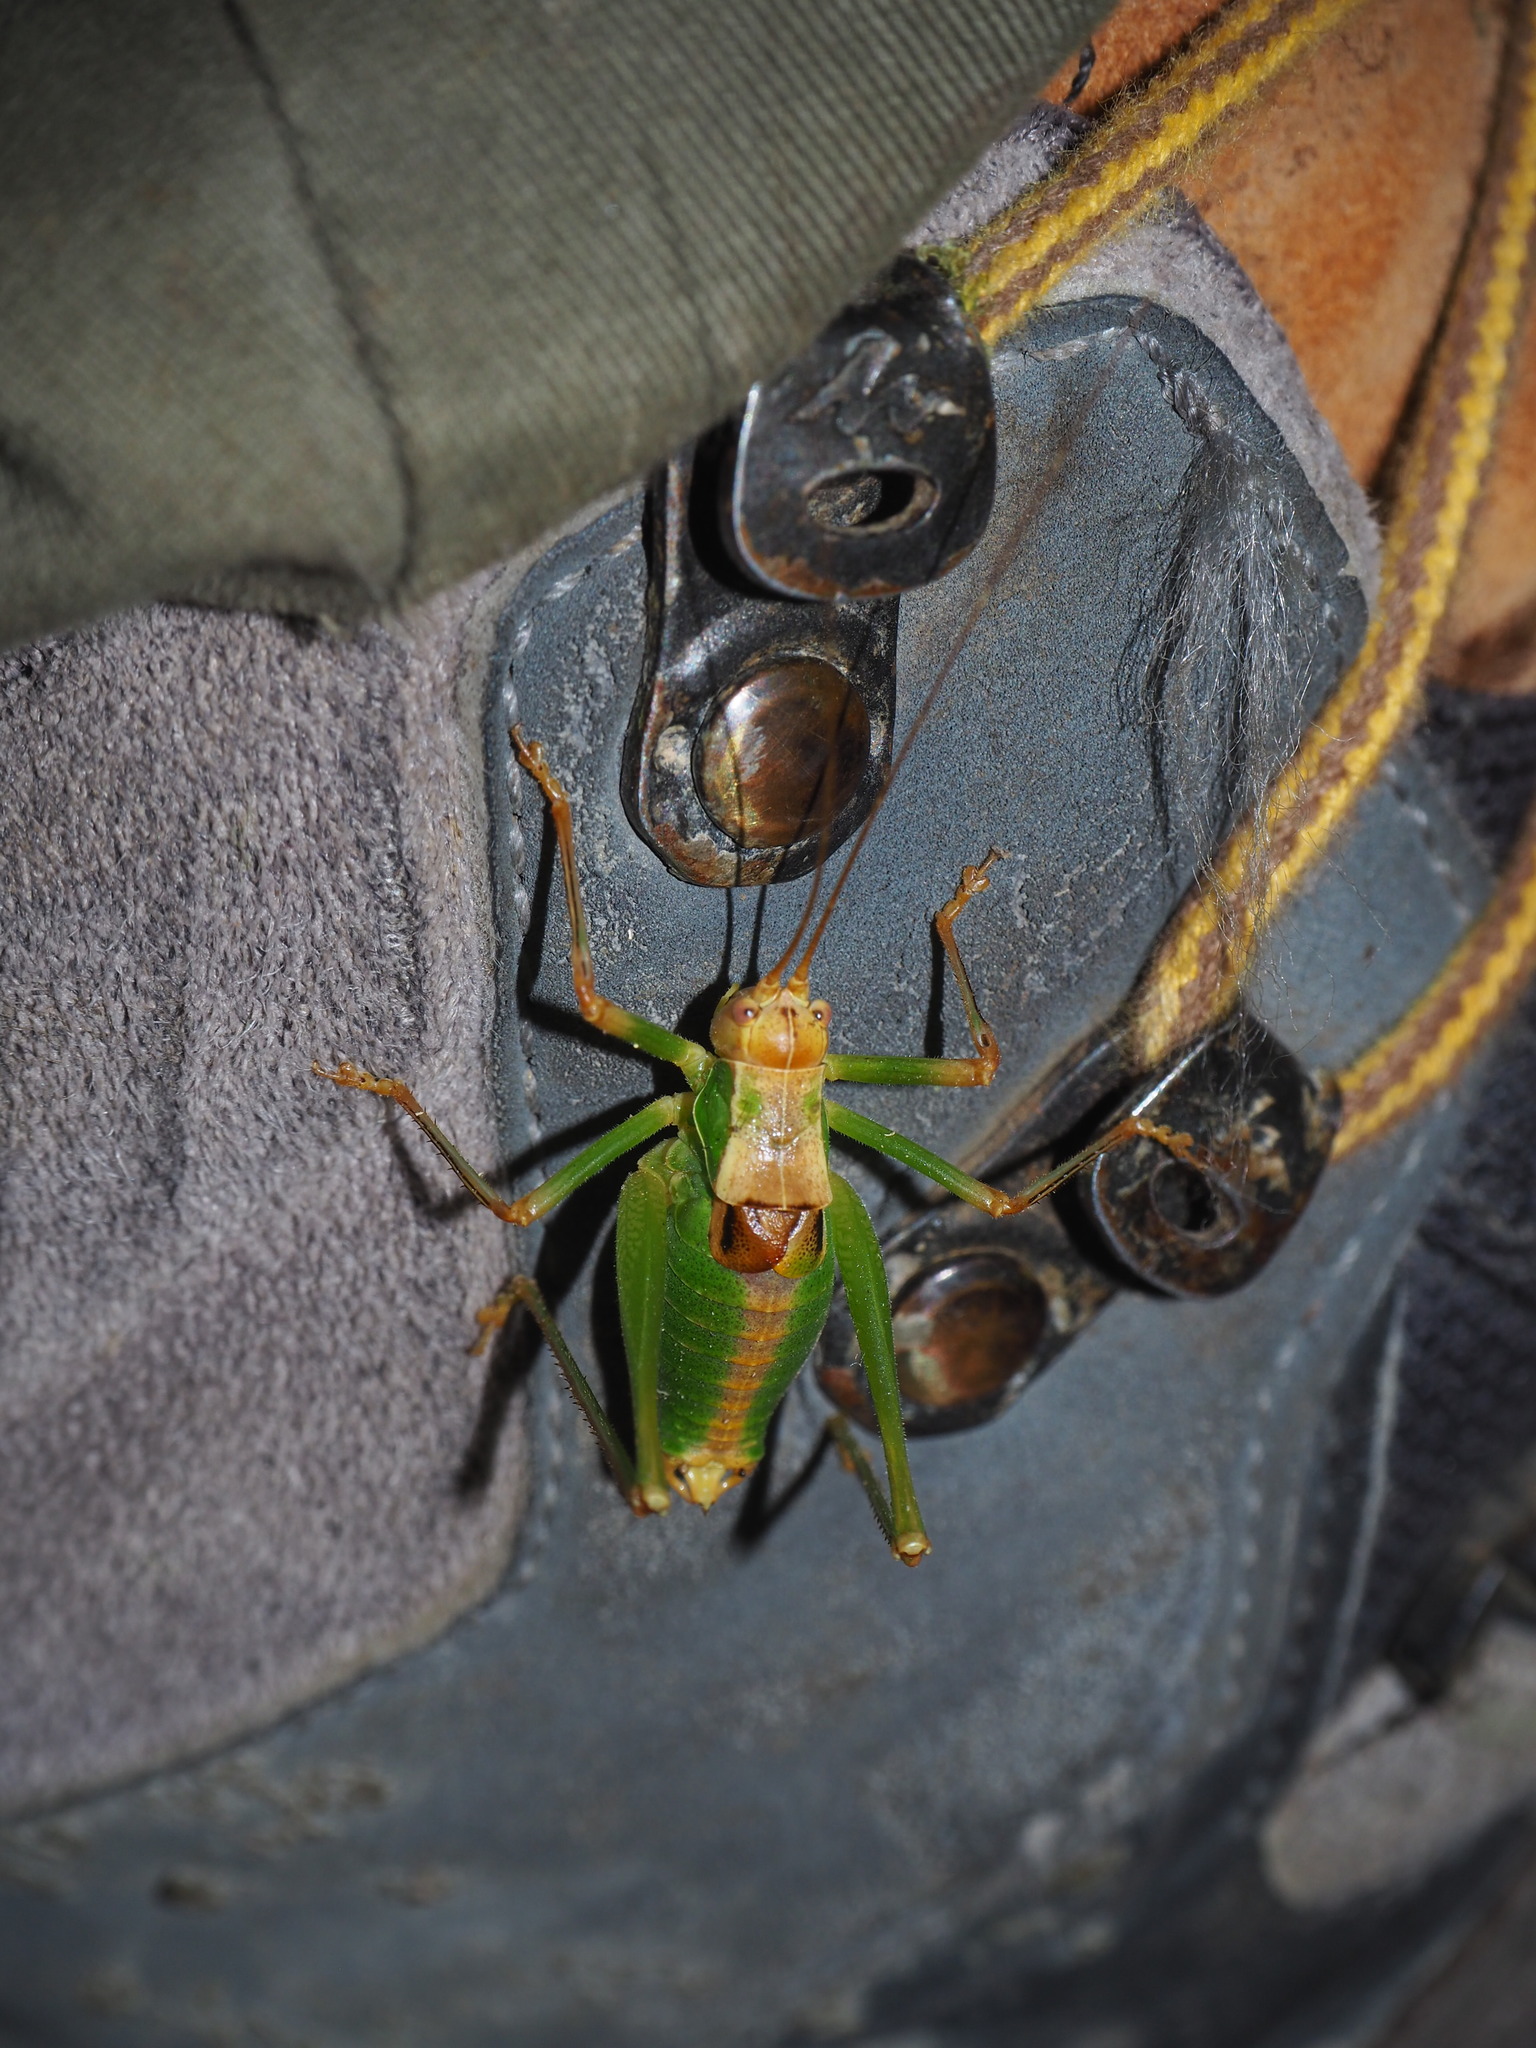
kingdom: Animalia
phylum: Arthropoda
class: Insecta
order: Orthoptera
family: Tettigoniidae
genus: Metaplastes
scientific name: Metaplastes pulchripennis
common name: Italian ornate bush-cricket
